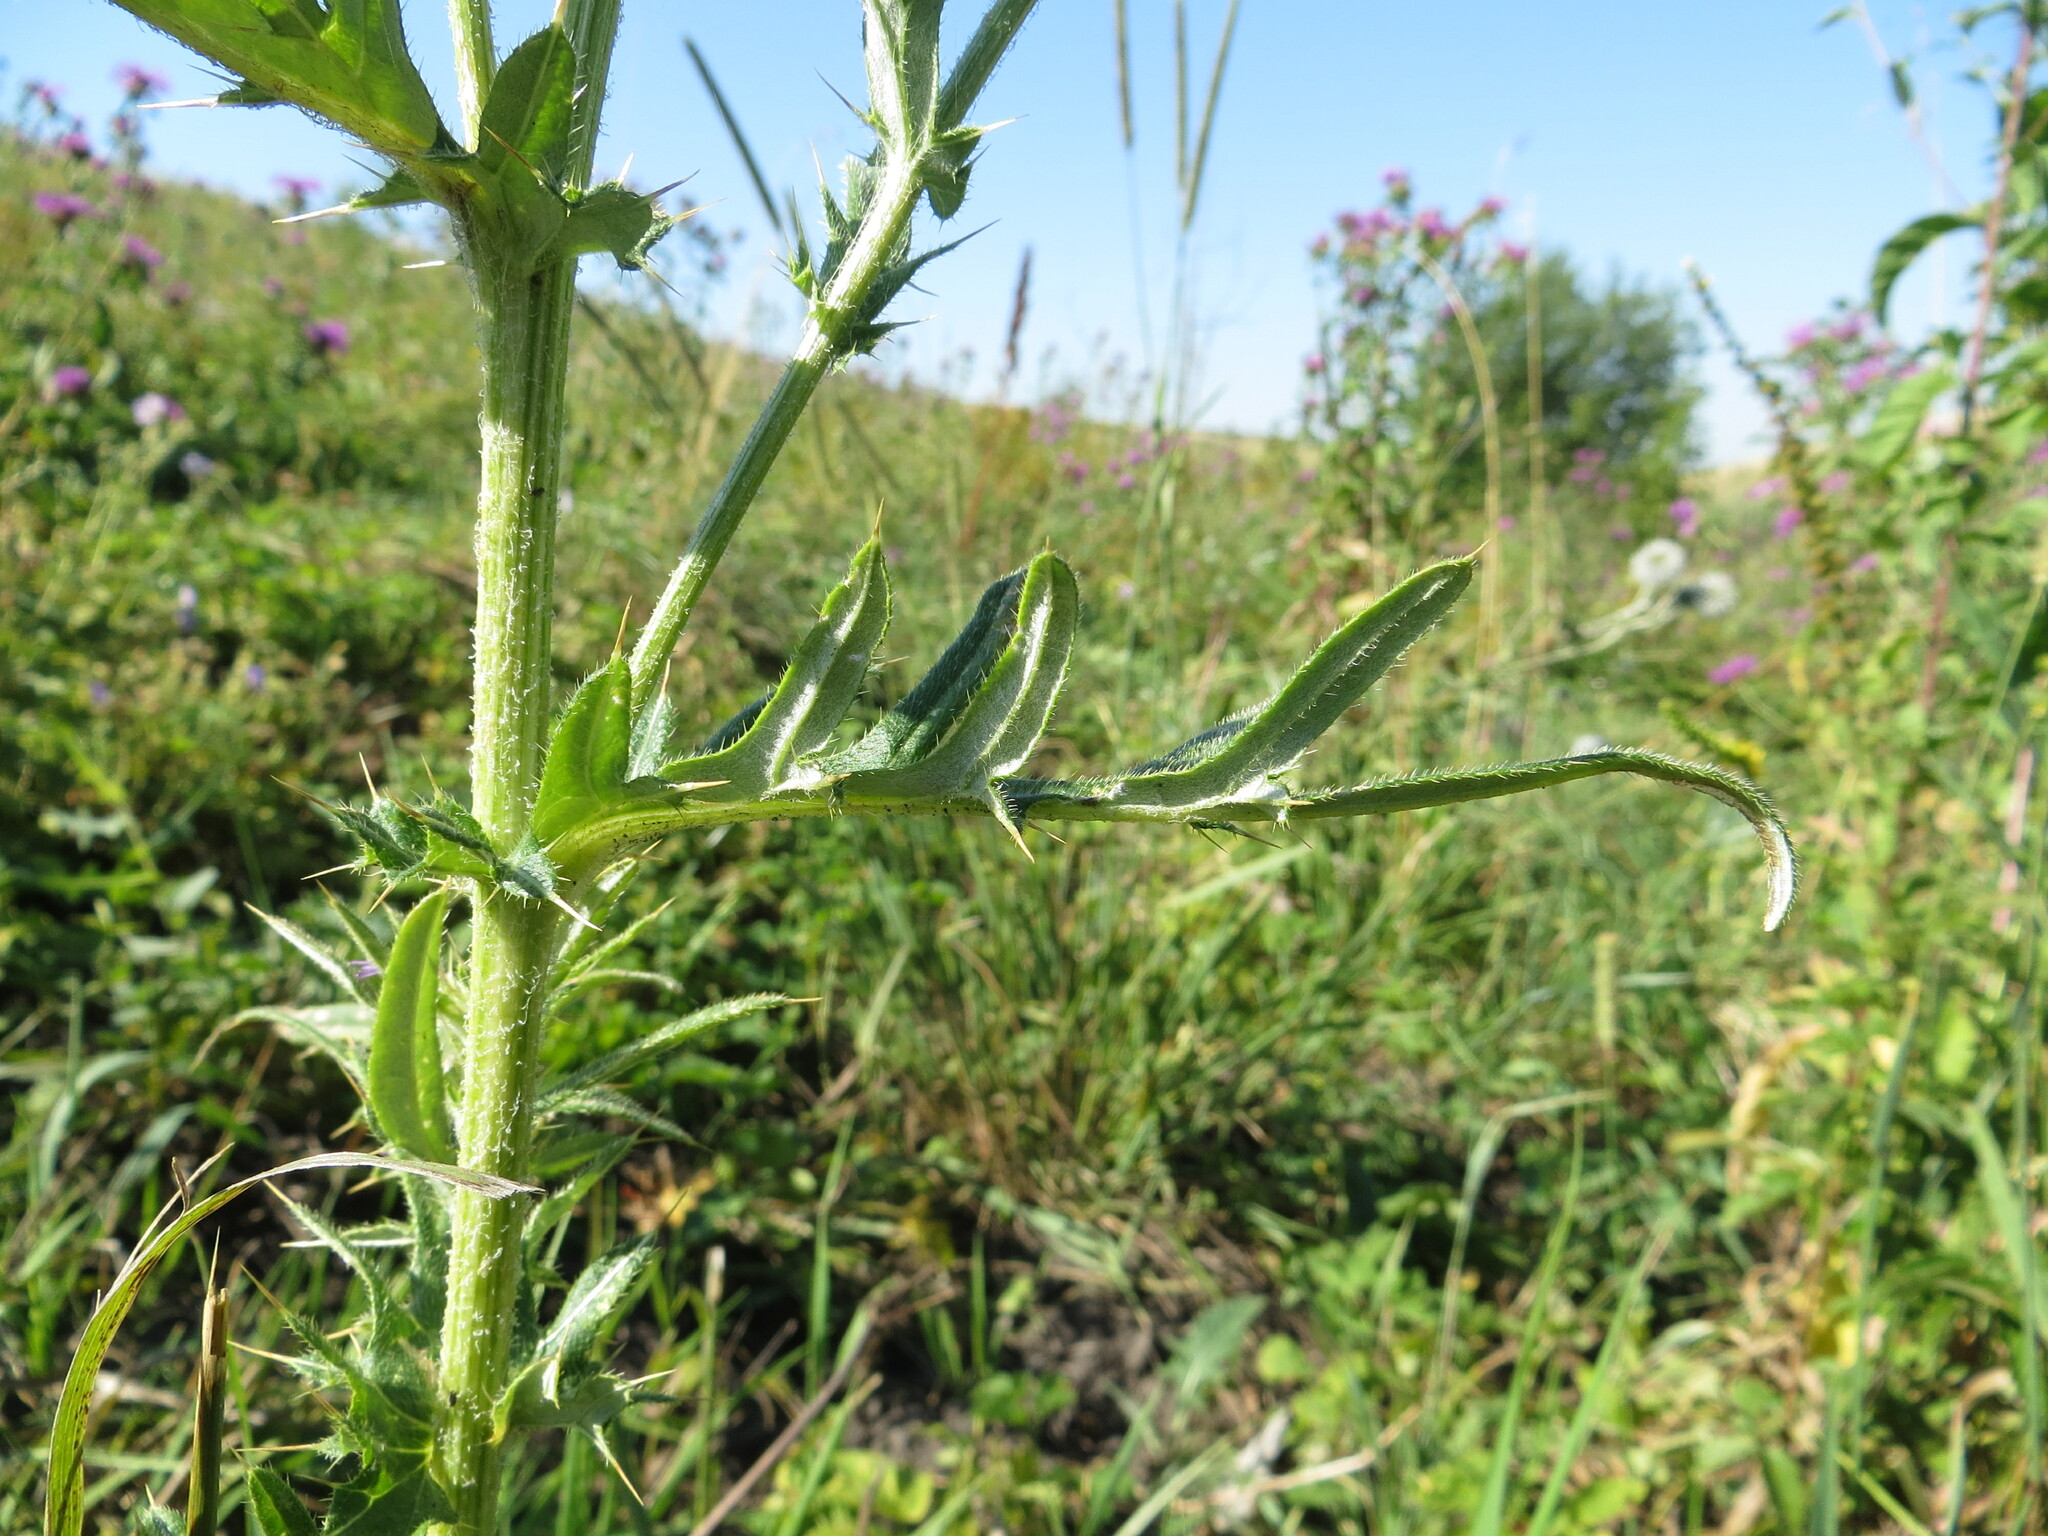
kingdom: Plantae
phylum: Tracheophyta
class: Magnoliopsida
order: Asterales
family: Asteraceae
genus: Cirsium
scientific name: Cirsium serrulatum
